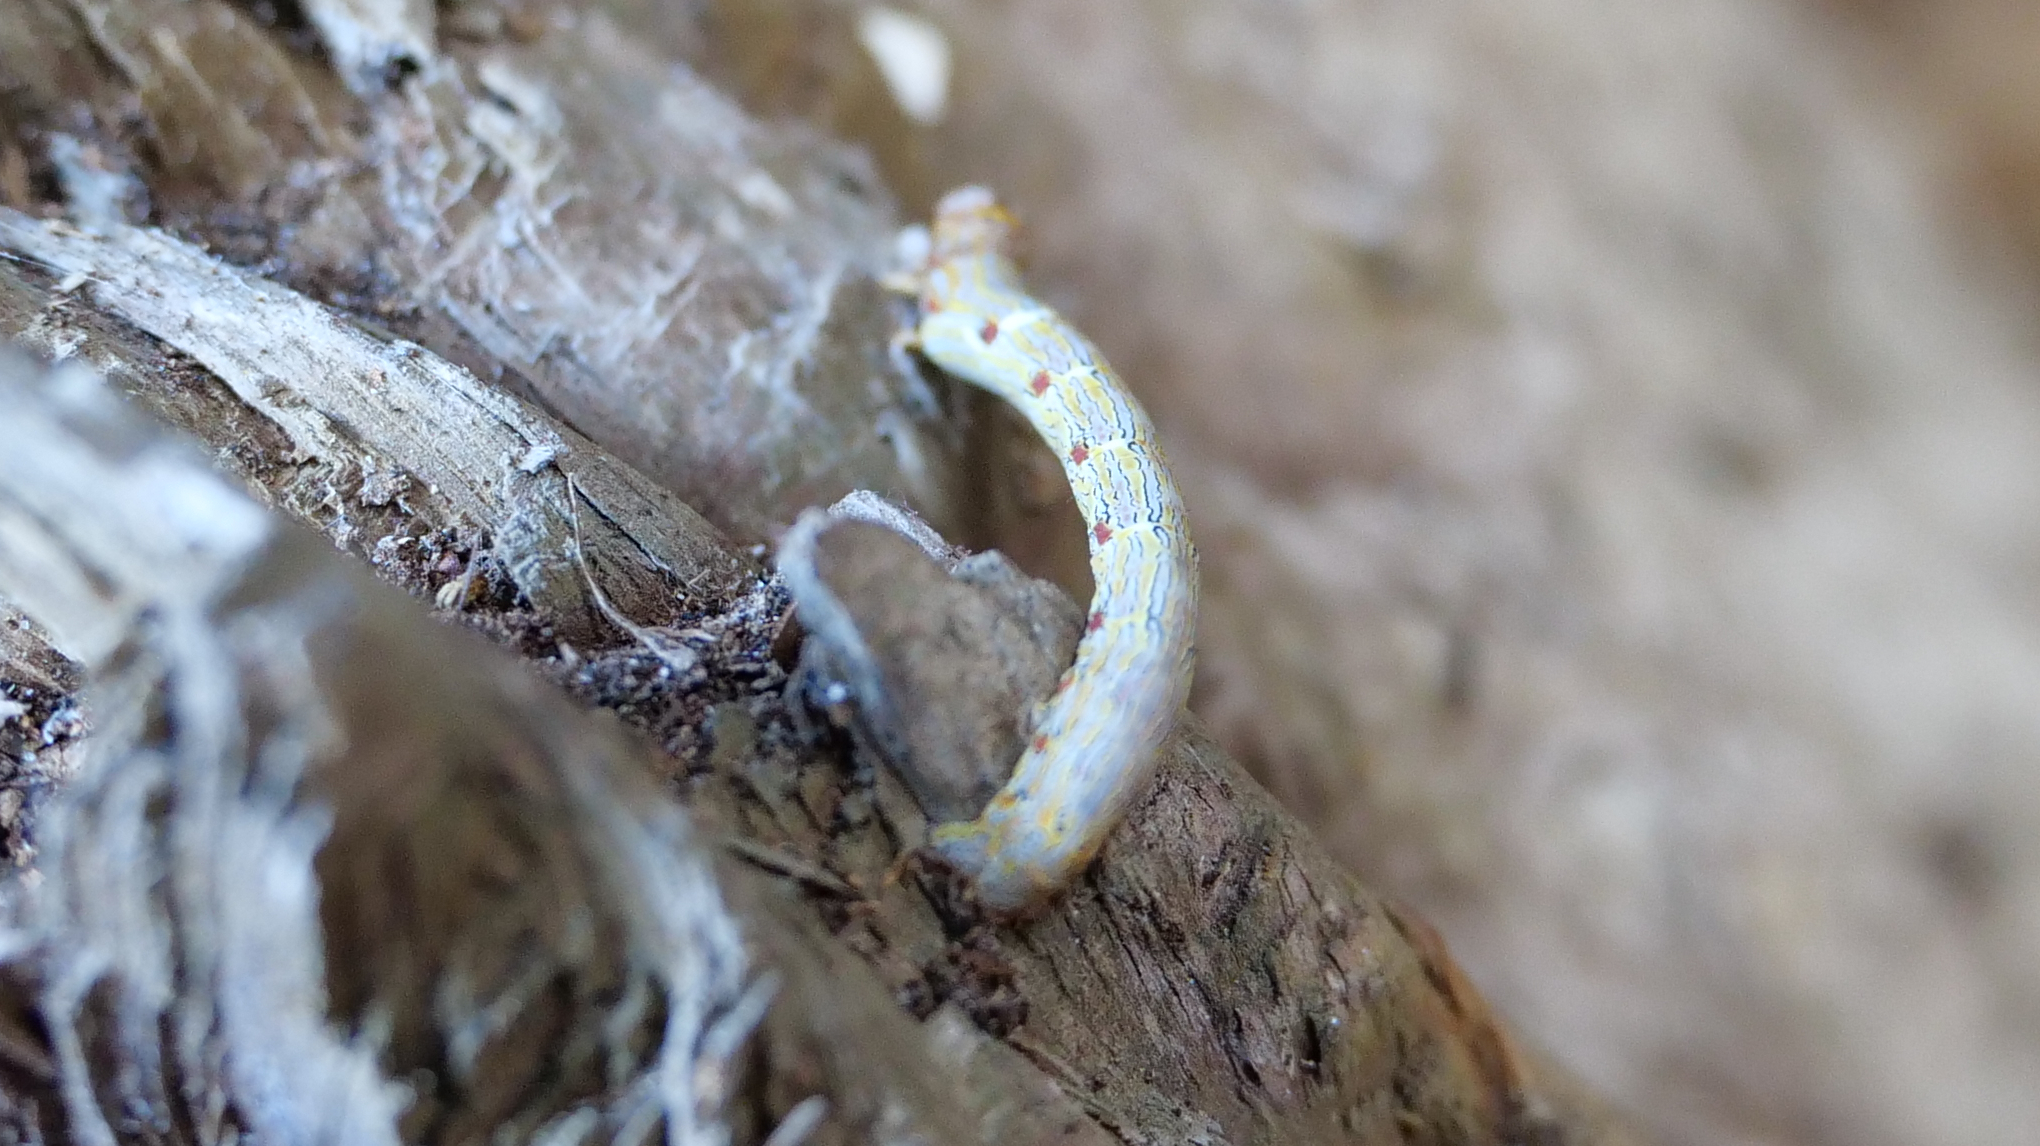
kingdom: Animalia
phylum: Arthropoda
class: Insecta
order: Lepidoptera
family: Geometridae
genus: Lycia
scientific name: Lycia ypsilon
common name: Wooly gray
